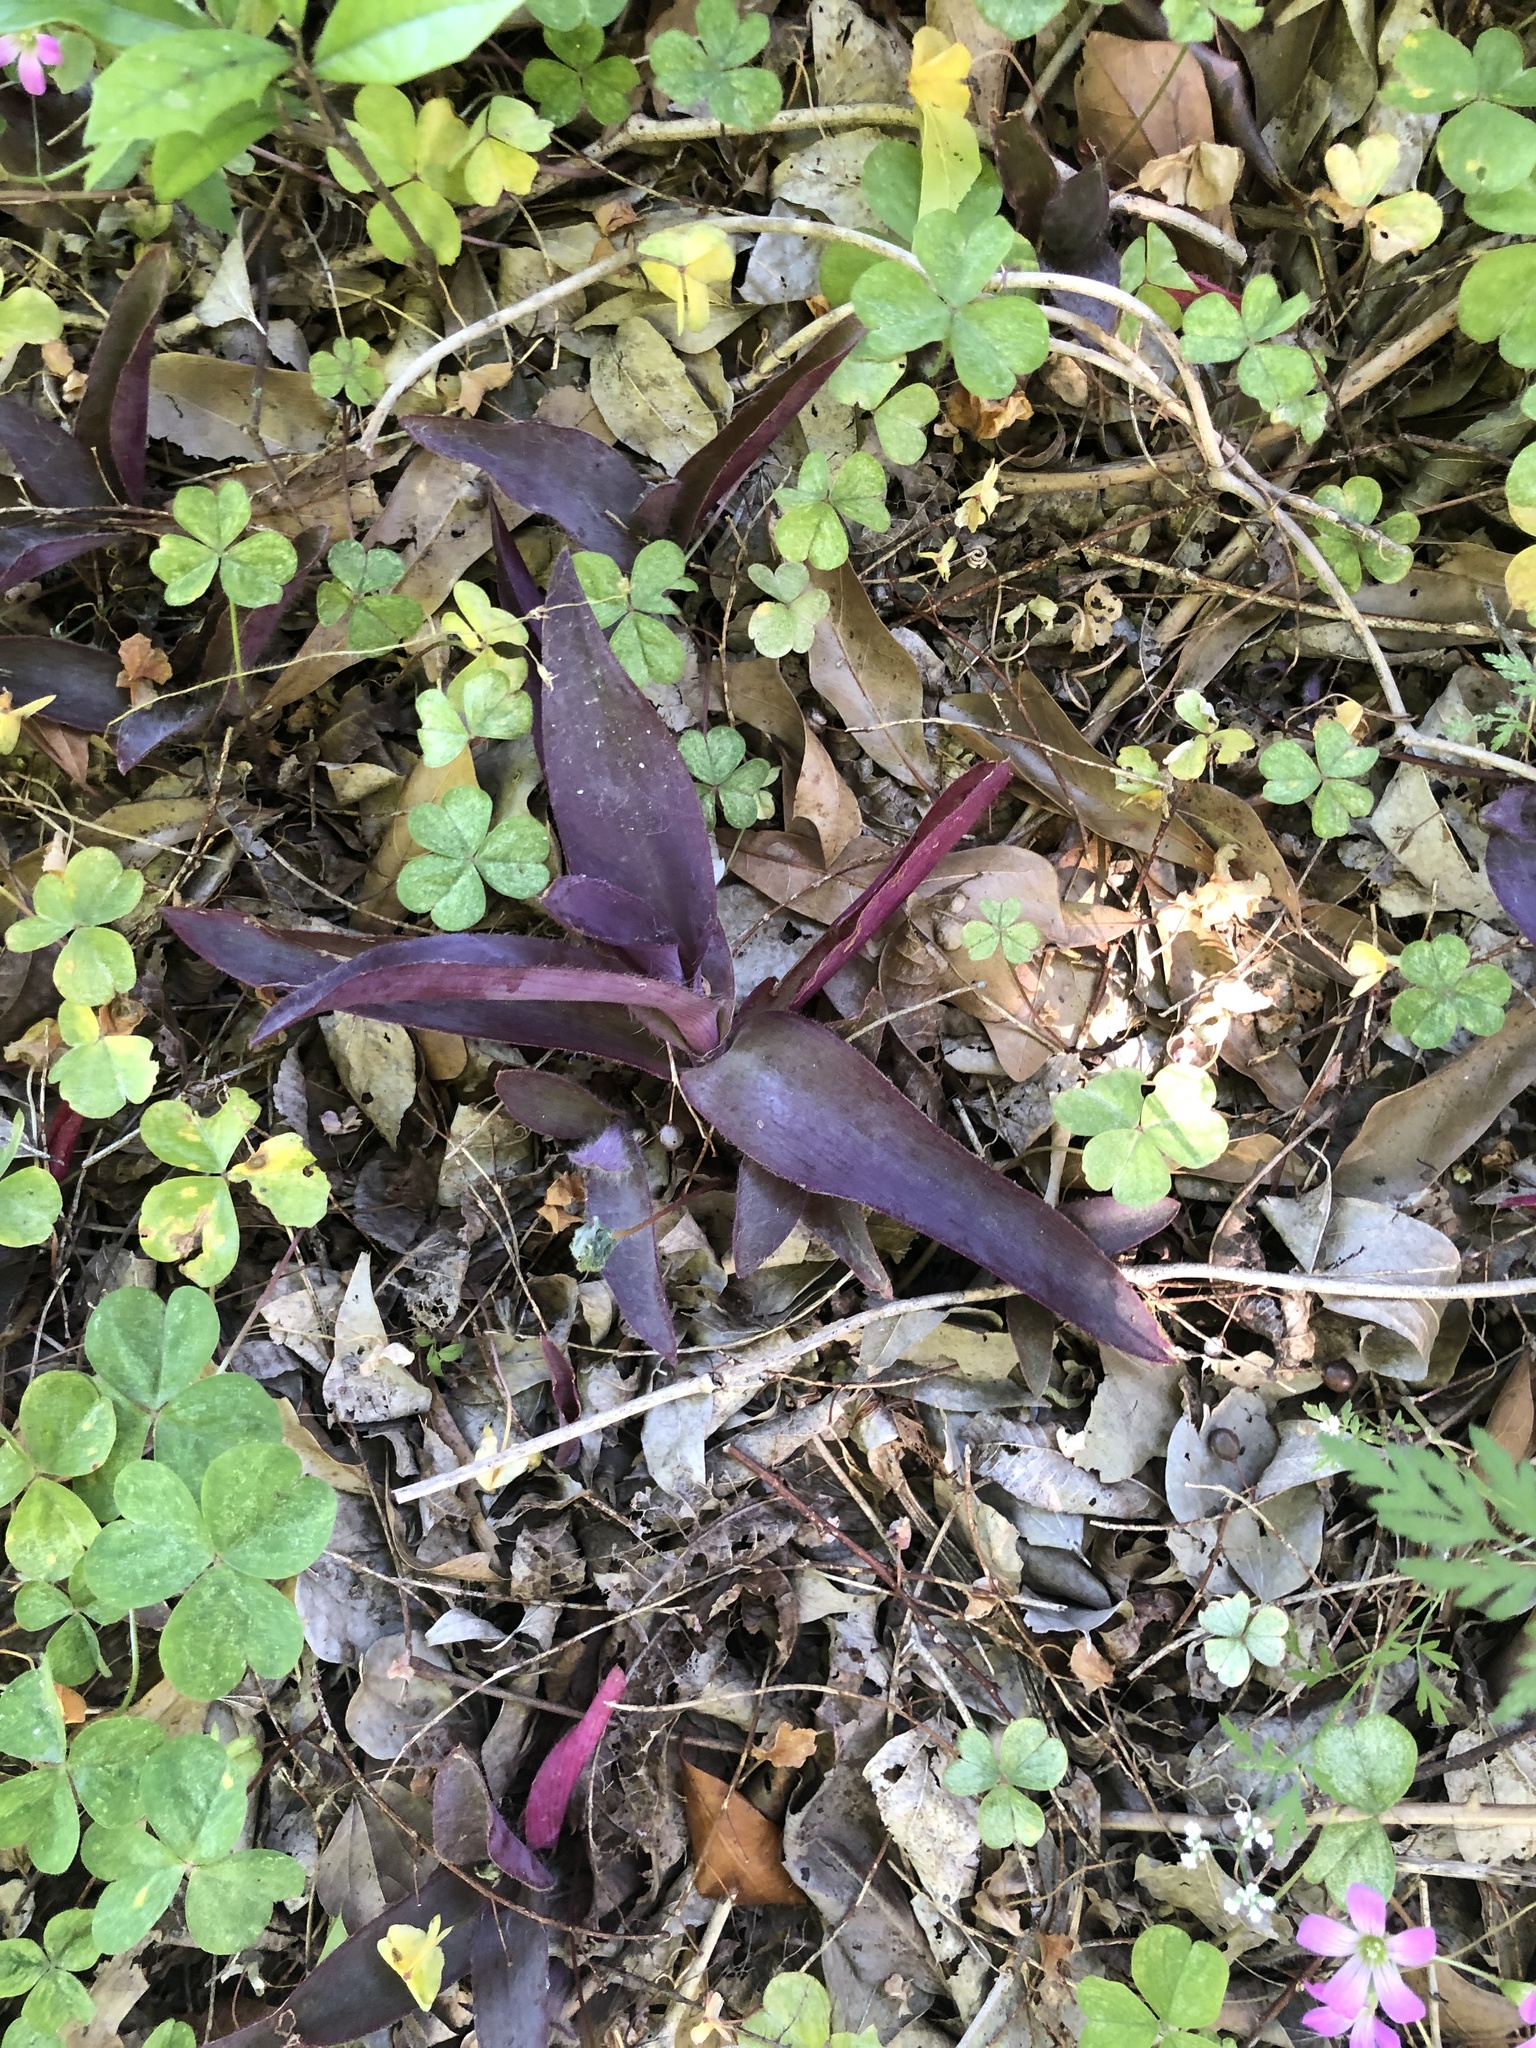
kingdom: Plantae
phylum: Tracheophyta
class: Liliopsida
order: Commelinales
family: Commelinaceae
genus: Tradescantia
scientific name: Tradescantia pallida
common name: Purpleheart
